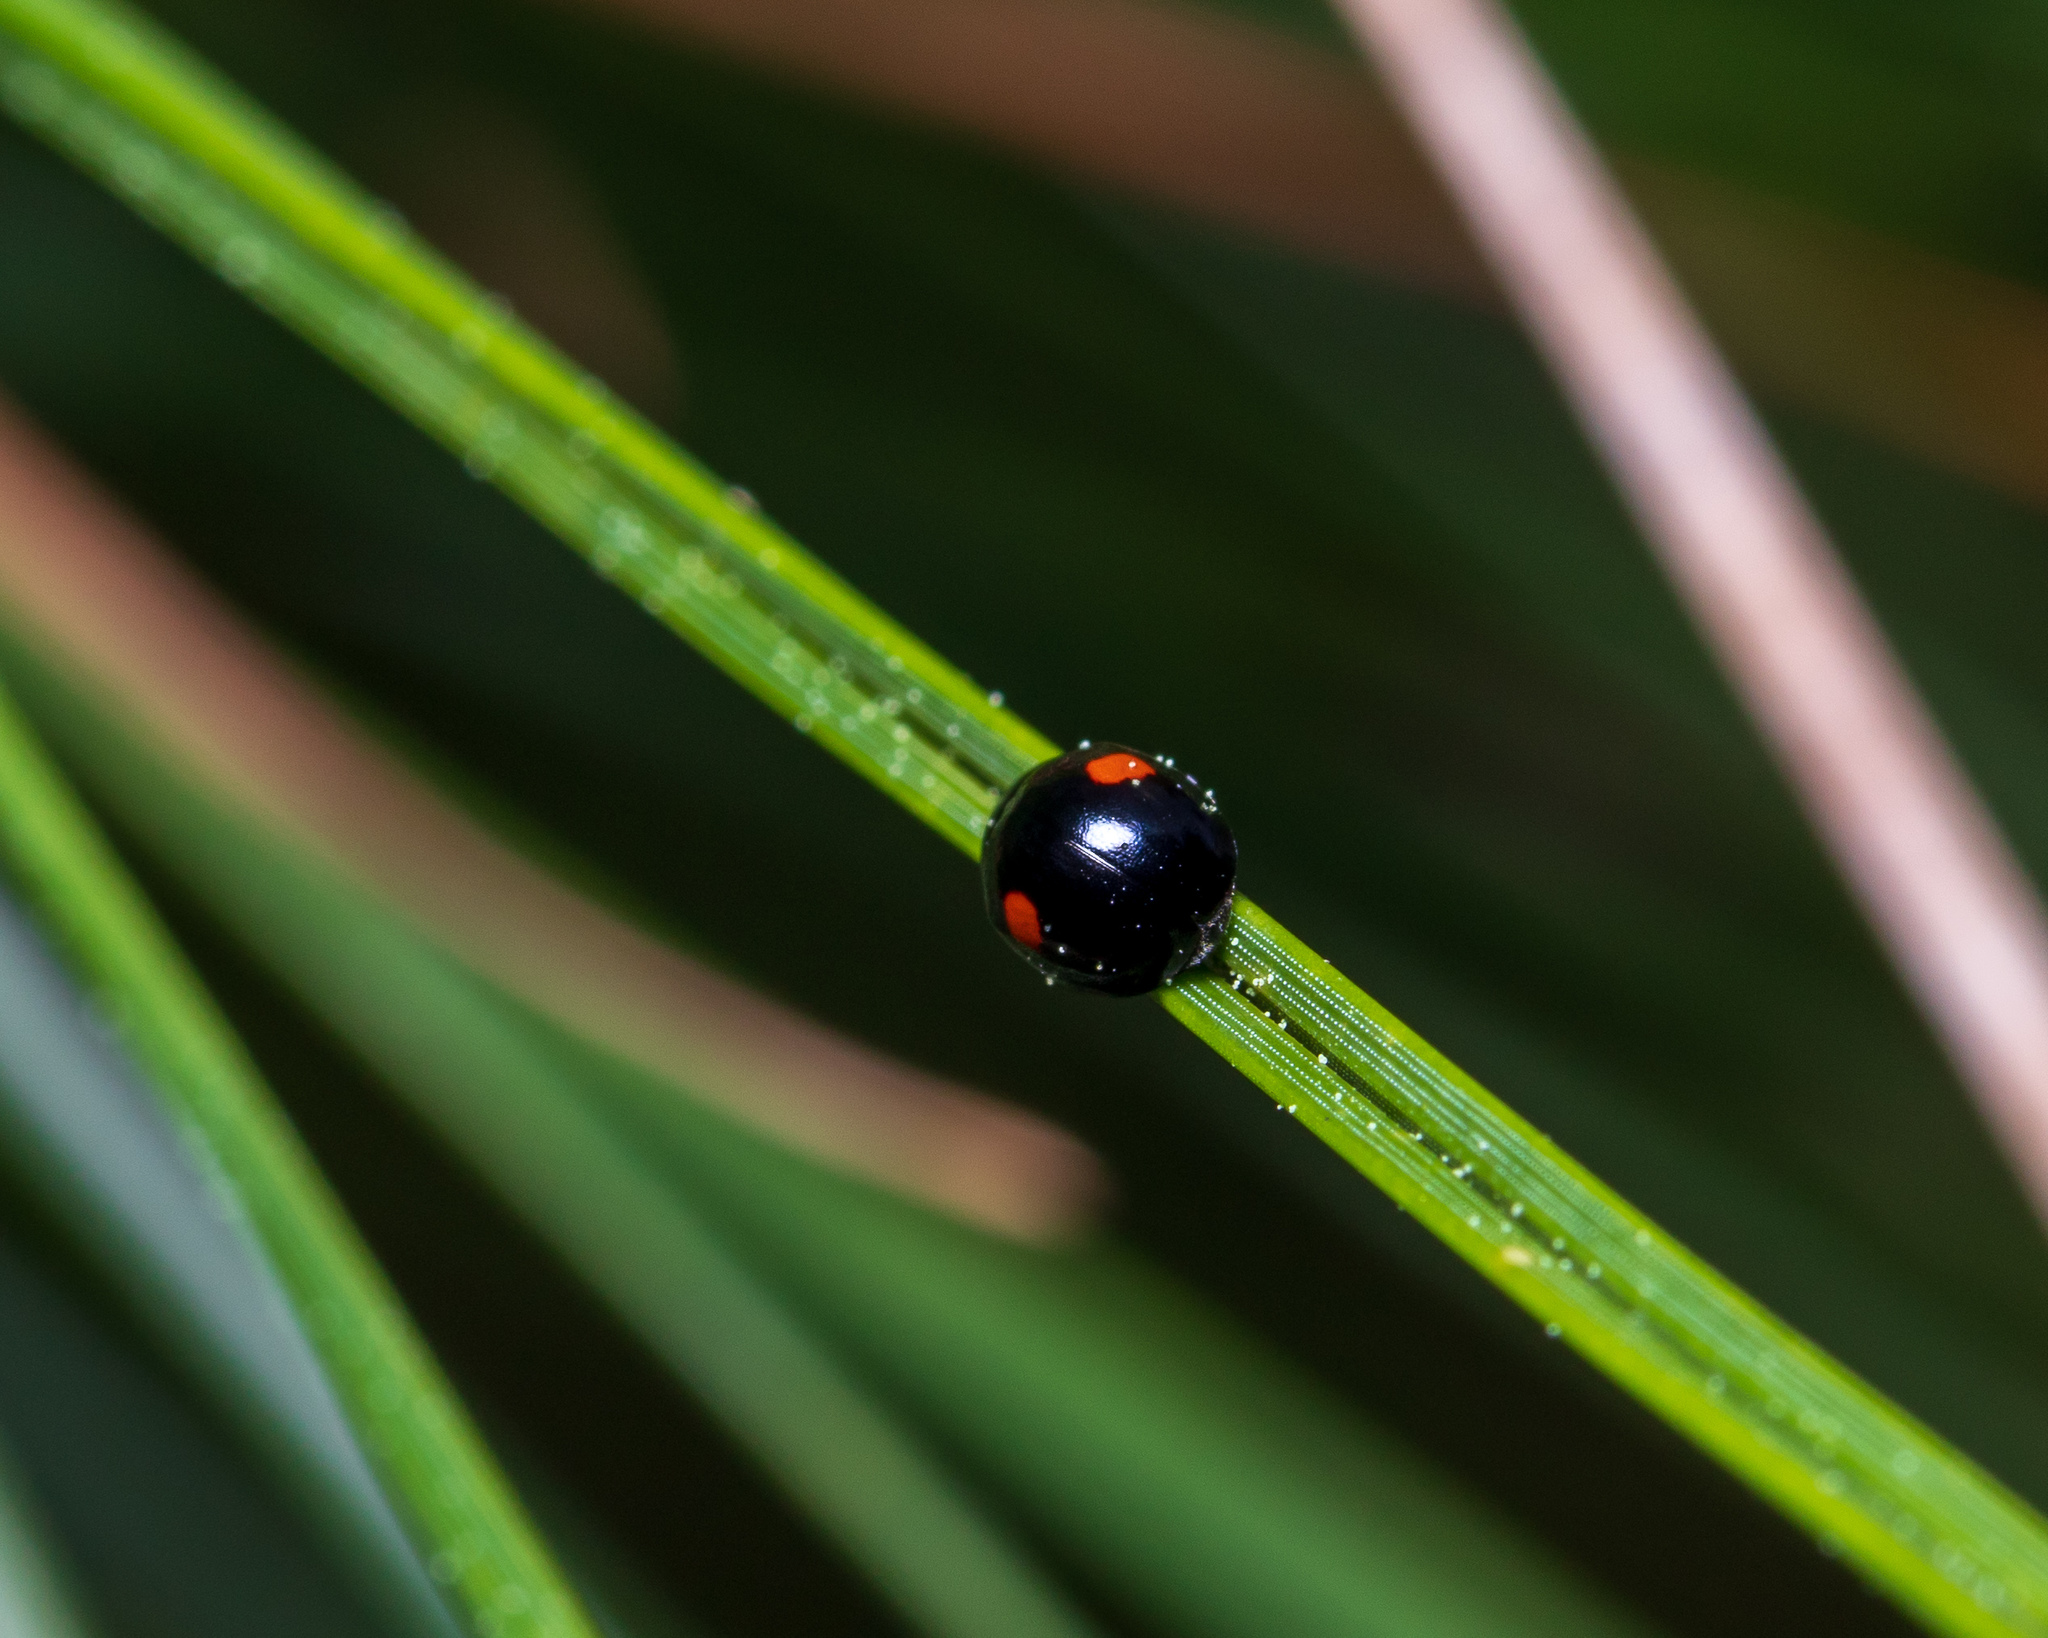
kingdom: Animalia
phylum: Arthropoda
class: Insecta
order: Coleoptera
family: Coccinellidae
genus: Chilocorus
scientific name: Chilocorus stigma
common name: Twicestabbed lady beetle
